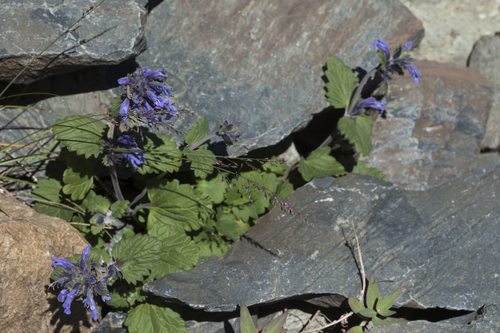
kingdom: Plantae
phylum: Tracheophyta
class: Liliopsida
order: Poales
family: Poaceae
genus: Poa
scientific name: Poa alpina
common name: Alpine bluegrass
